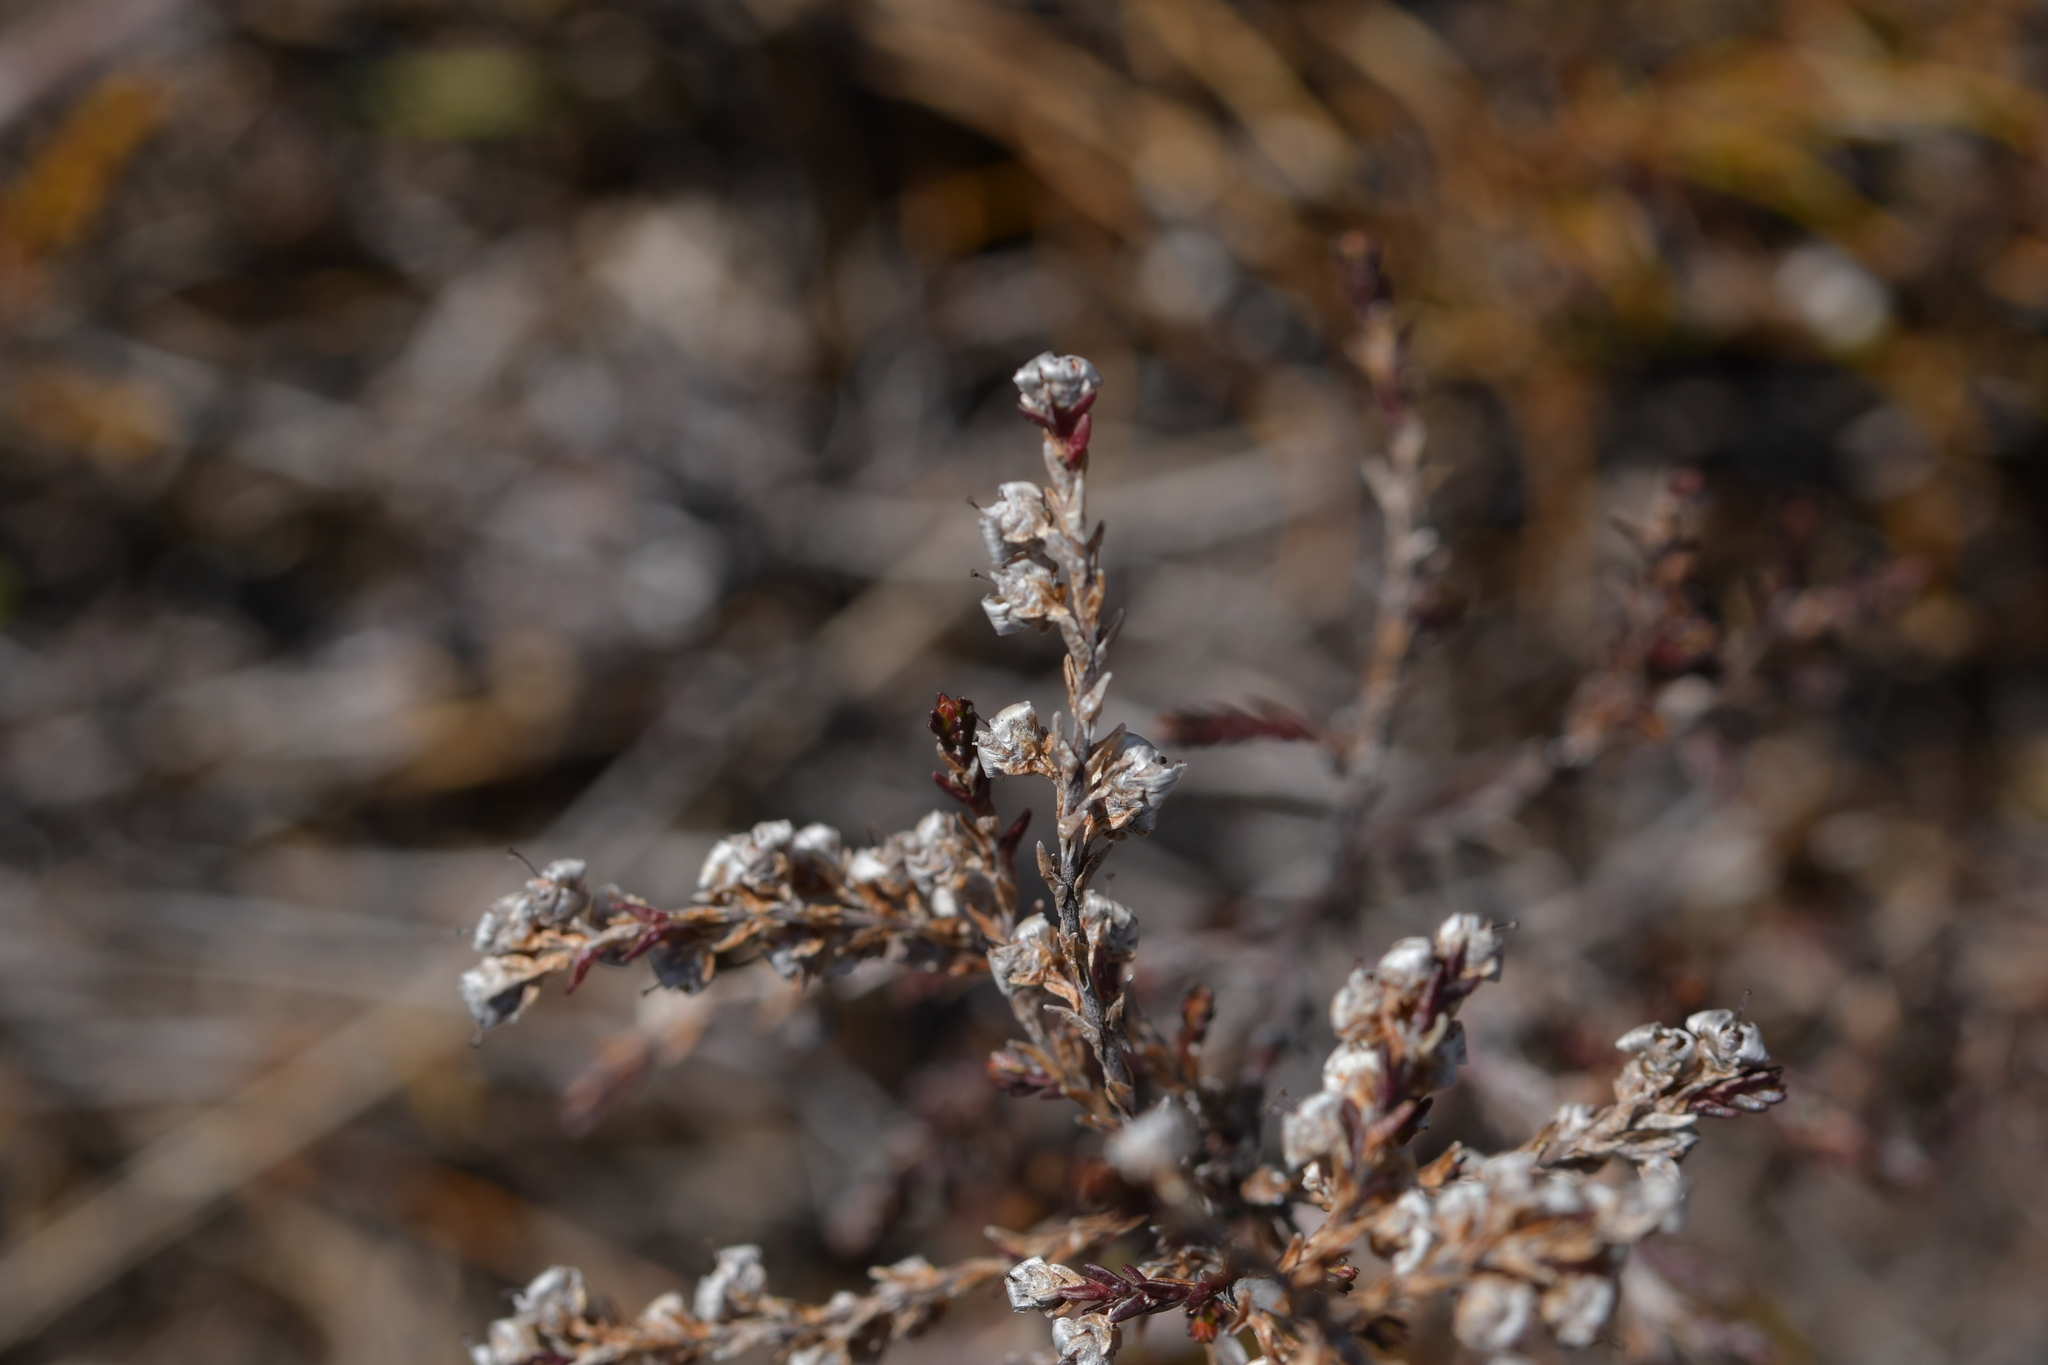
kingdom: Plantae
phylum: Tracheophyta
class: Magnoliopsida
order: Ericales
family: Ericaceae
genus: Calluna
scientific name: Calluna vulgaris
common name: Heather
